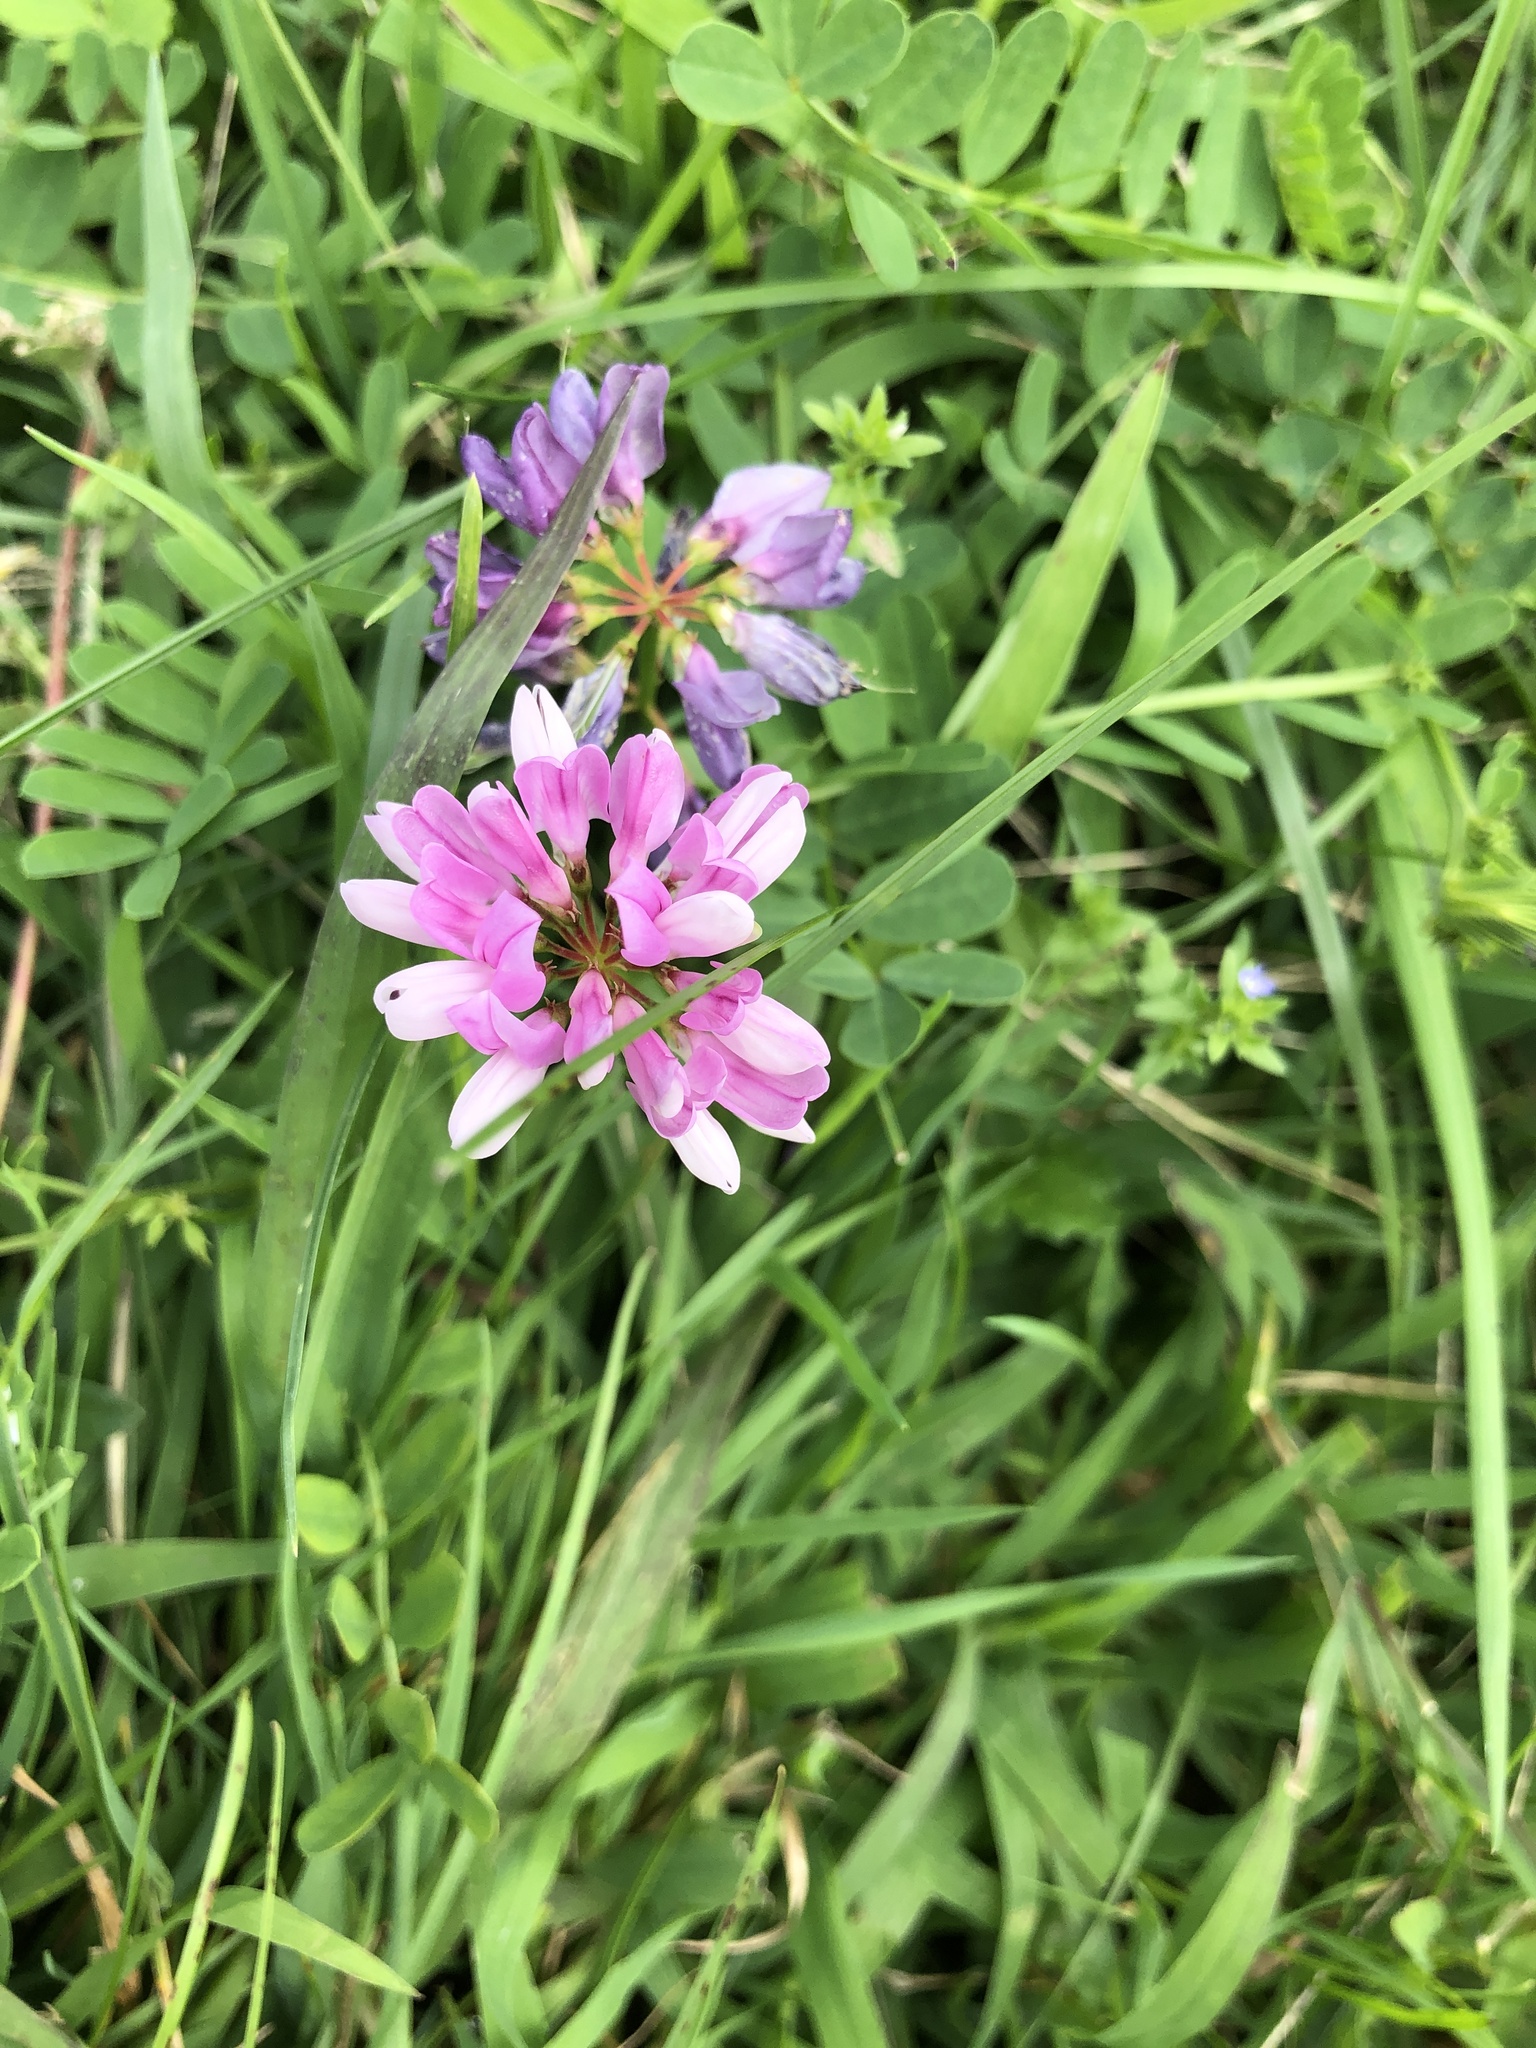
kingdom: Plantae
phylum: Tracheophyta
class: Magnoliopsida
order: Fabales
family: Fabaceae
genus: Coronilla
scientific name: Coronilla varia
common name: Crownvetch
